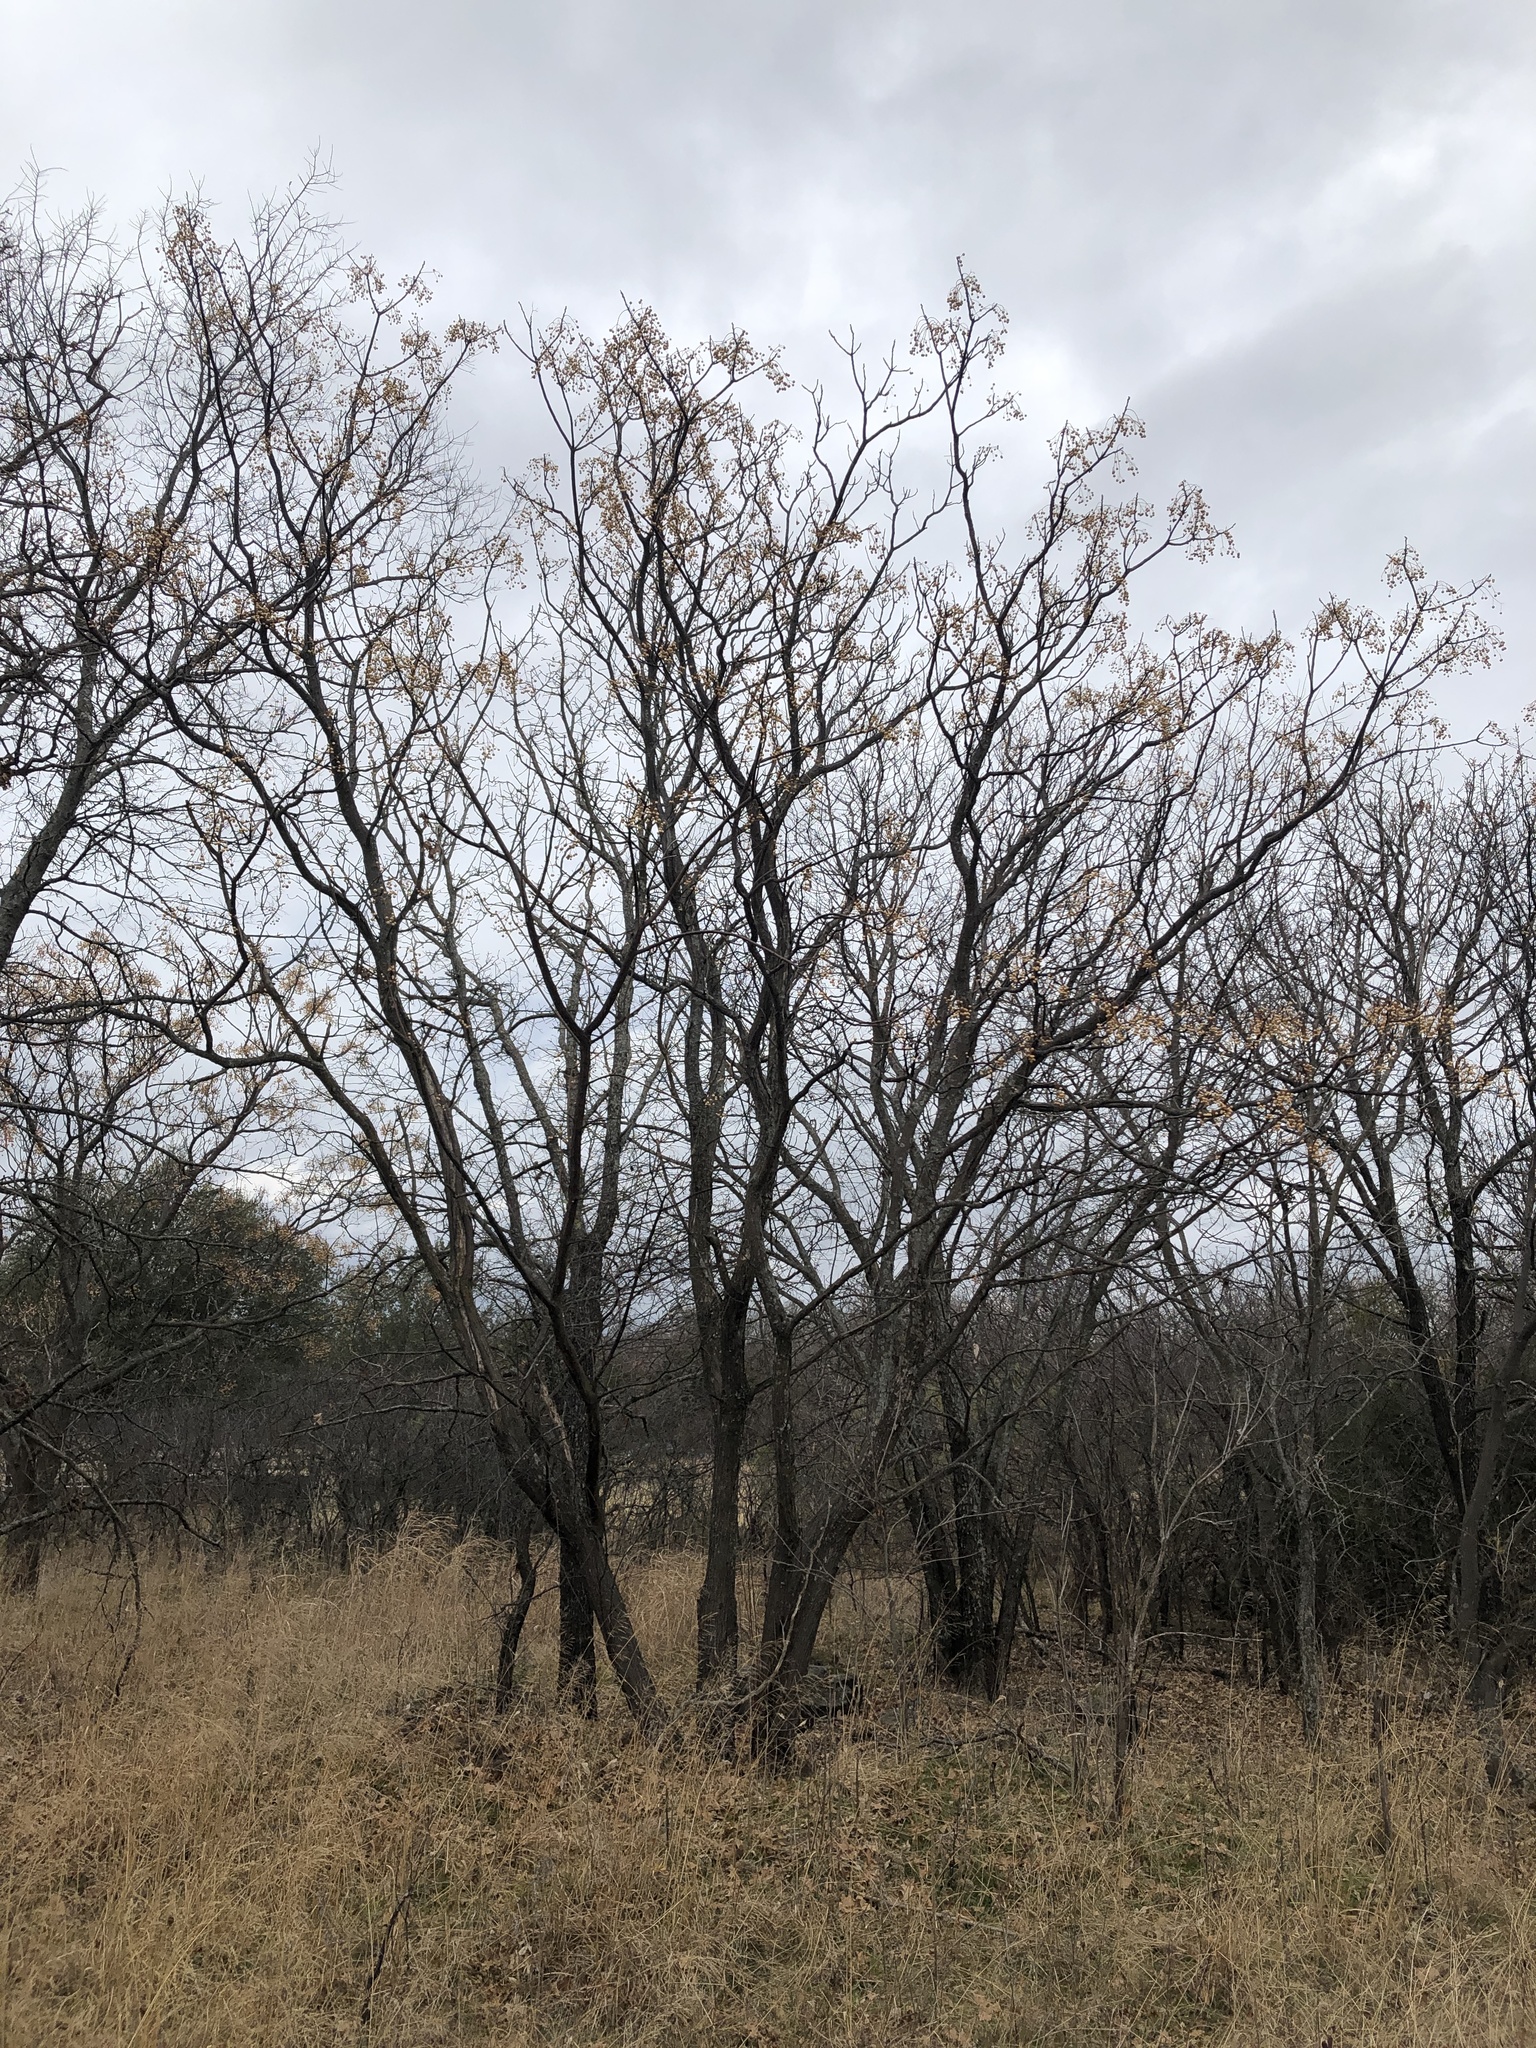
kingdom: Plantae
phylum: Tracheophyta
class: Magnoliopsida
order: Sapindales
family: Meliaceae
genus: Melia
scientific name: Melia azedarach
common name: Chinaberrytree
